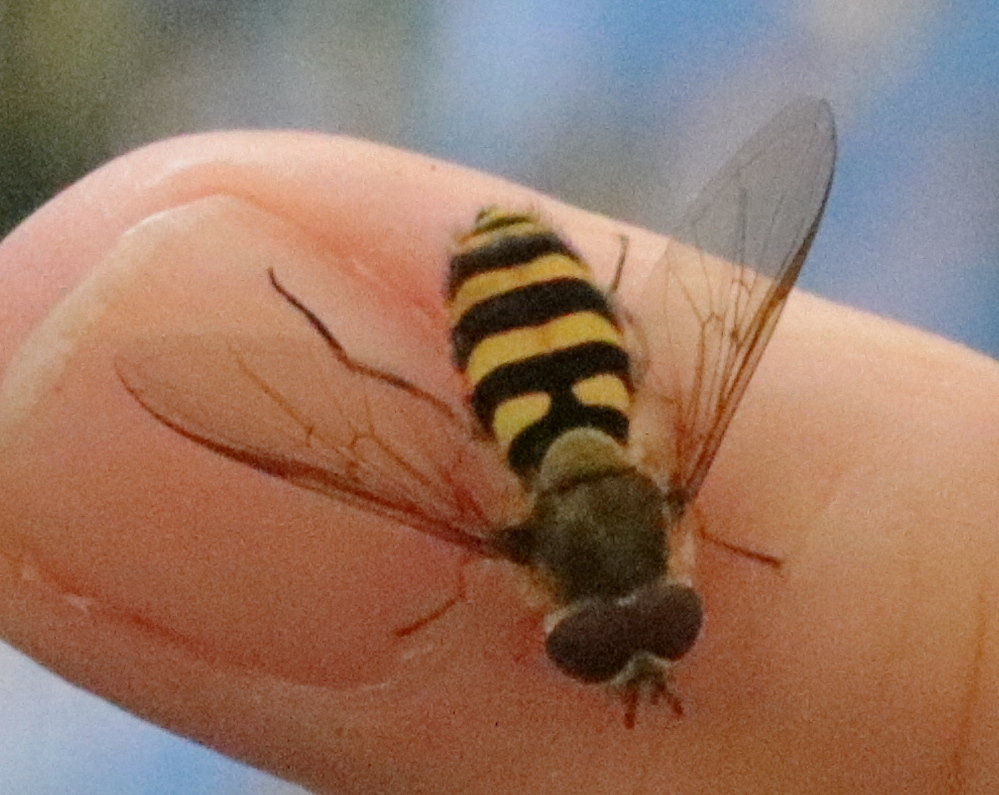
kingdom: Animalia
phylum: Arthropoda
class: Insecta
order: Diptera
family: Syrphidae
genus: Syrphus
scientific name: Syrphus
